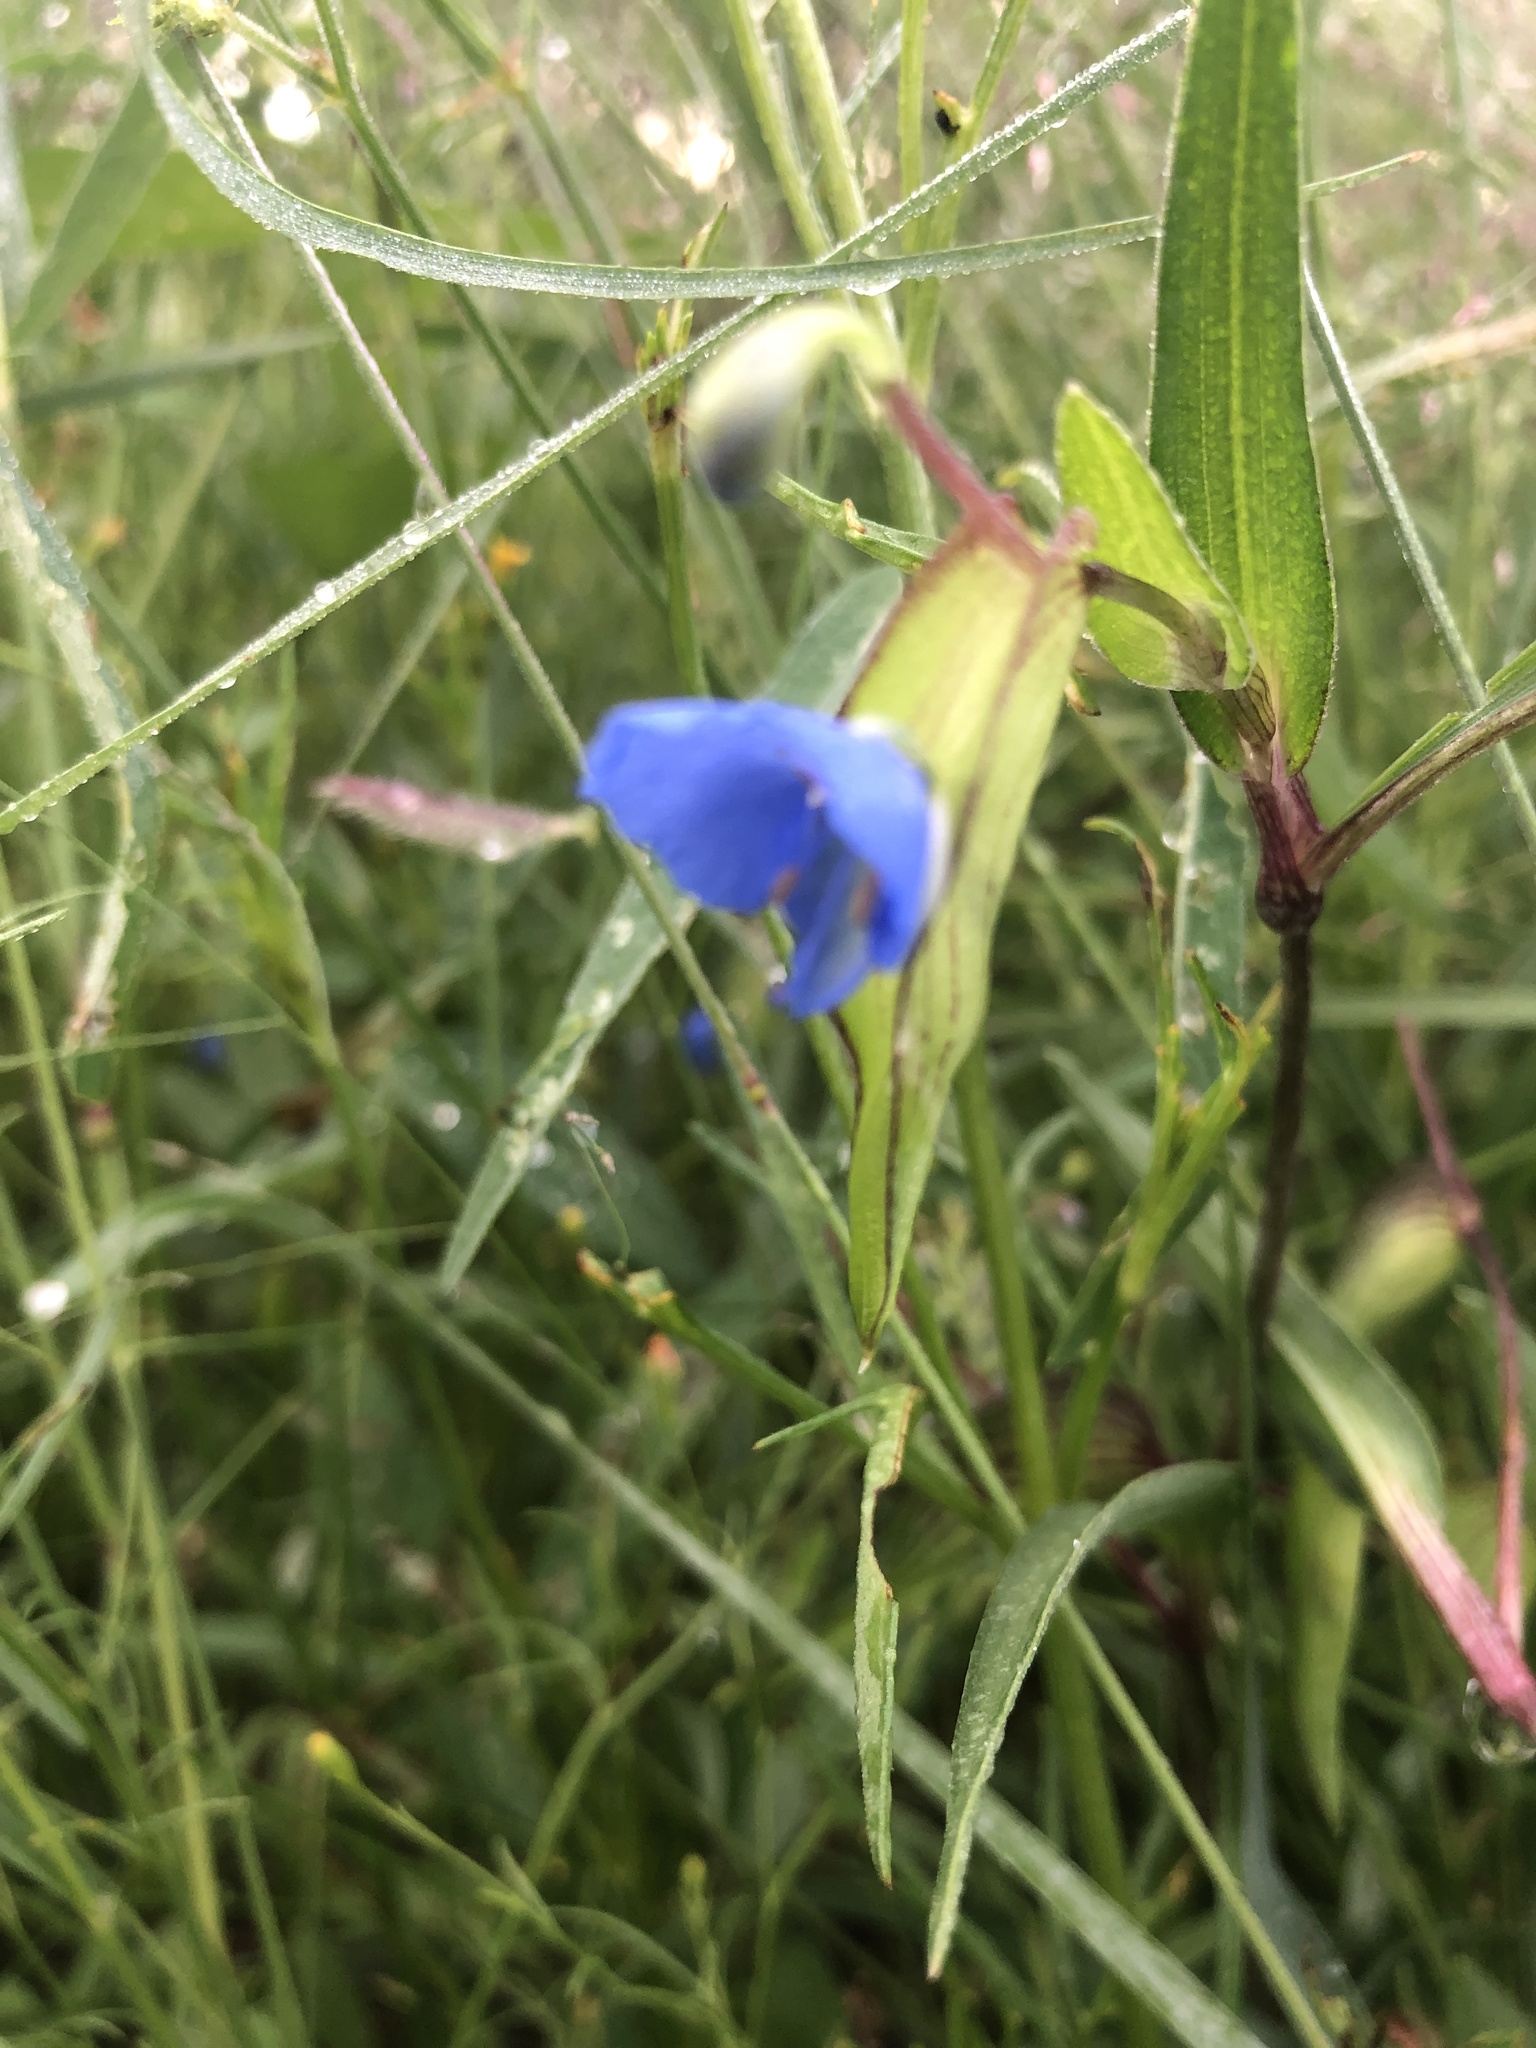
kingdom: Plantae
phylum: Tracheophyta
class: Liliopsida
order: Commelinales
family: Commelinaceae
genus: Commelina
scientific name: Commelina dianthifolia
